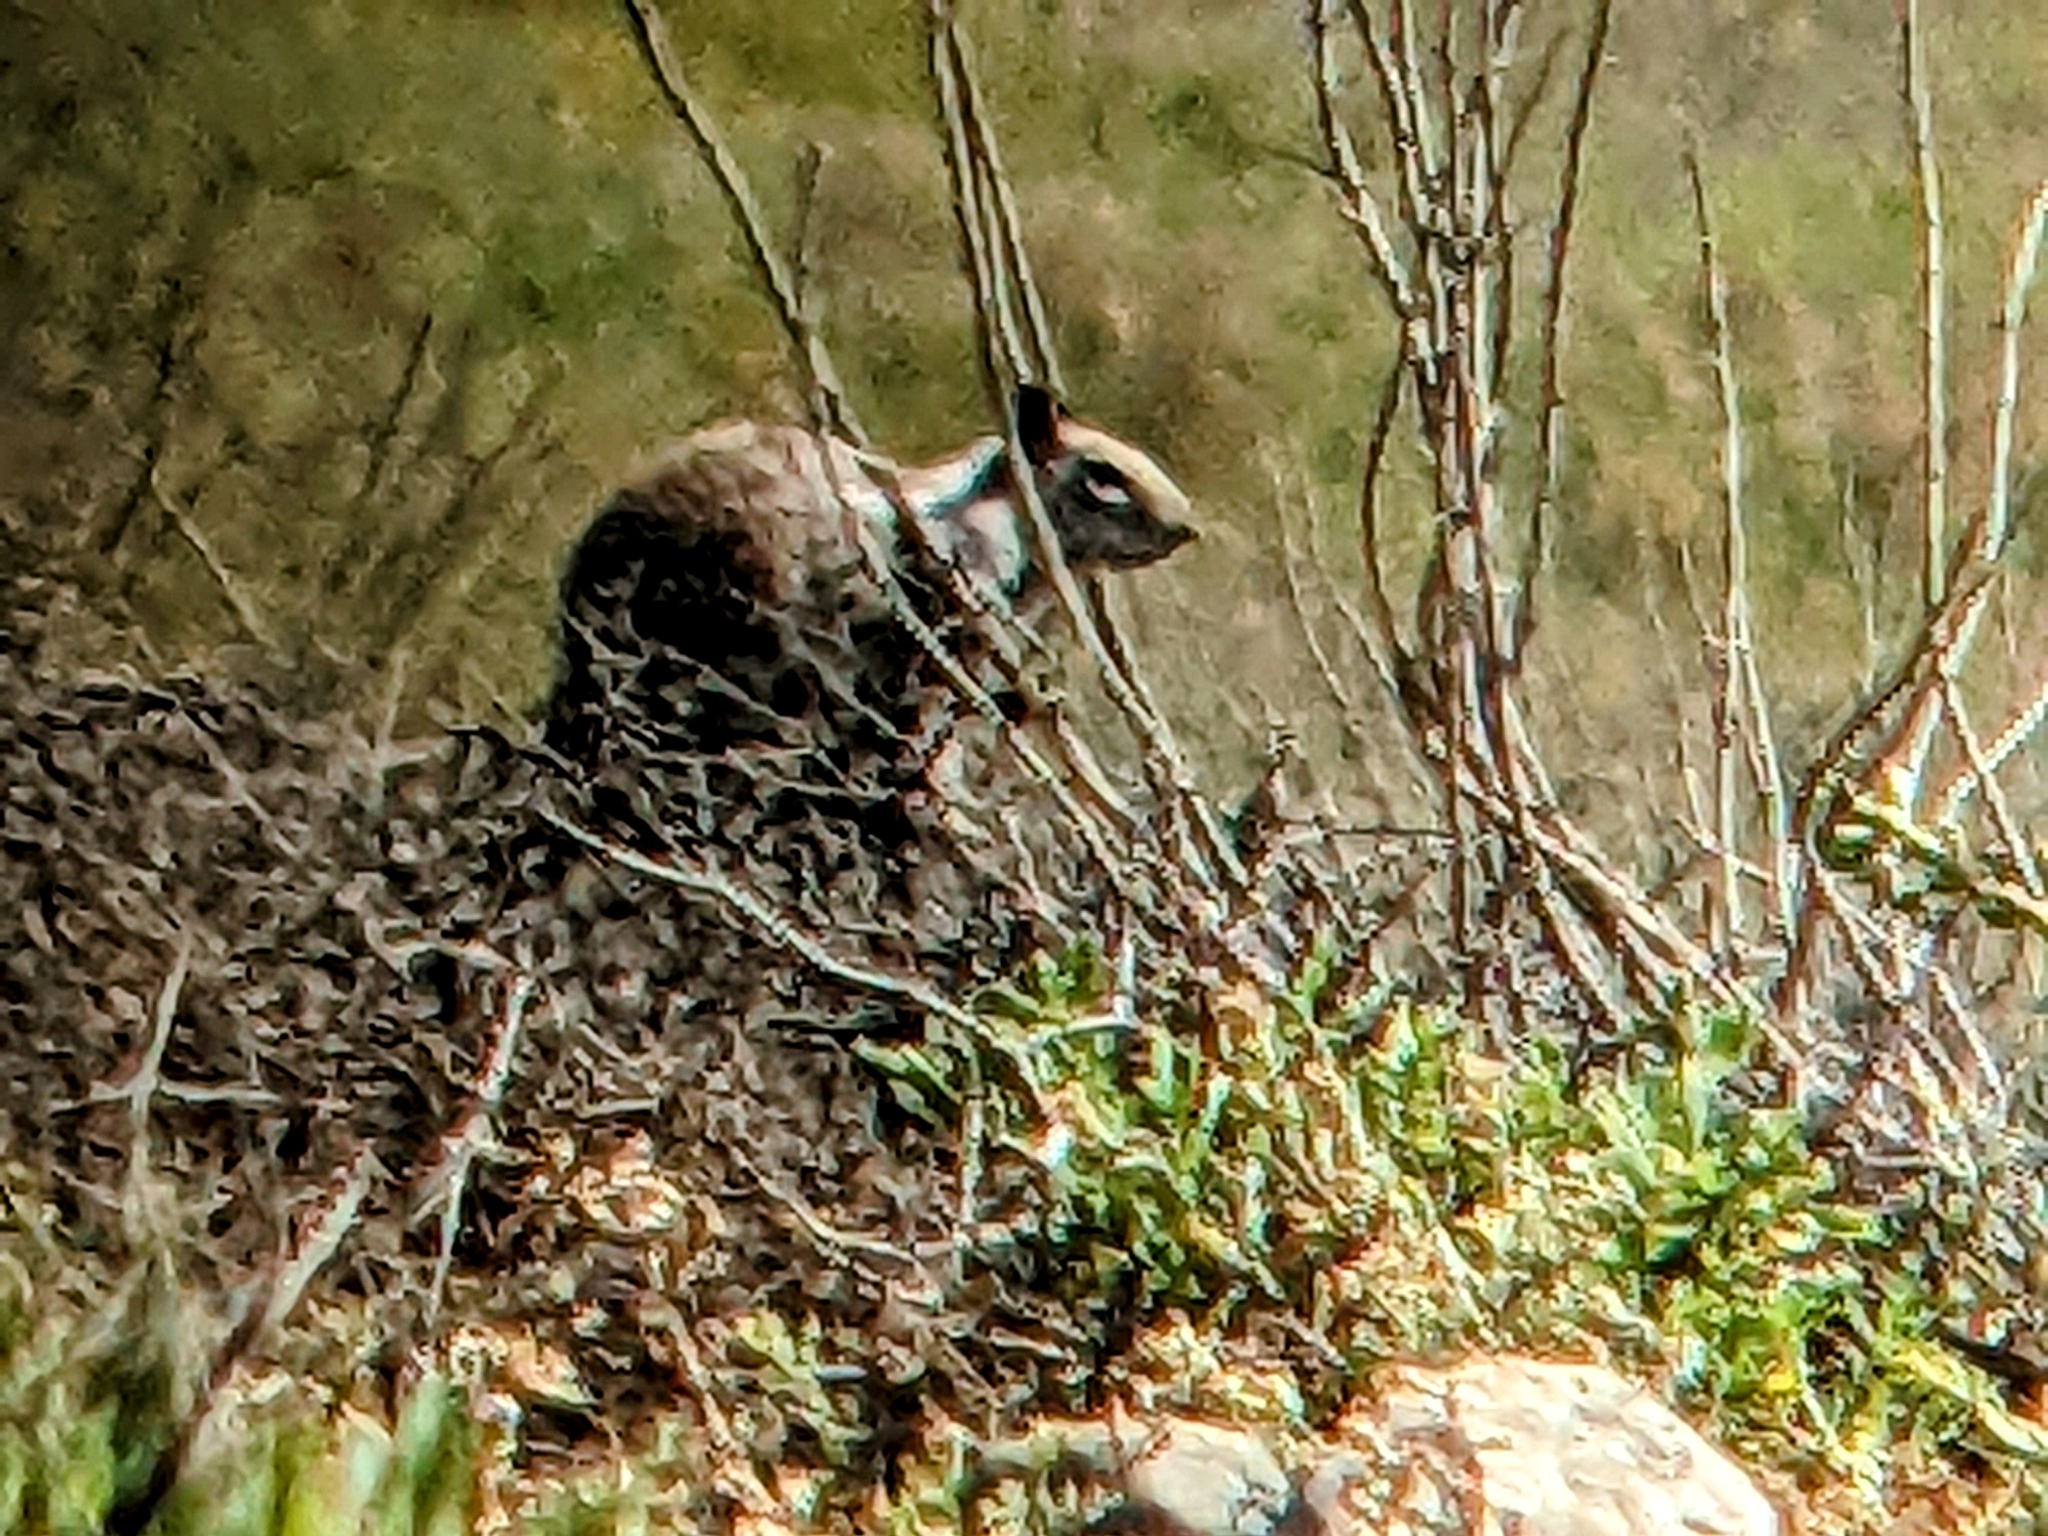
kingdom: Animalia
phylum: Chordata
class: Mammalia
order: Rodentia
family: Sciuridae
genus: Otospermophilus
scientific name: Otospermophilus beecheyi
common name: California ground squirrel
